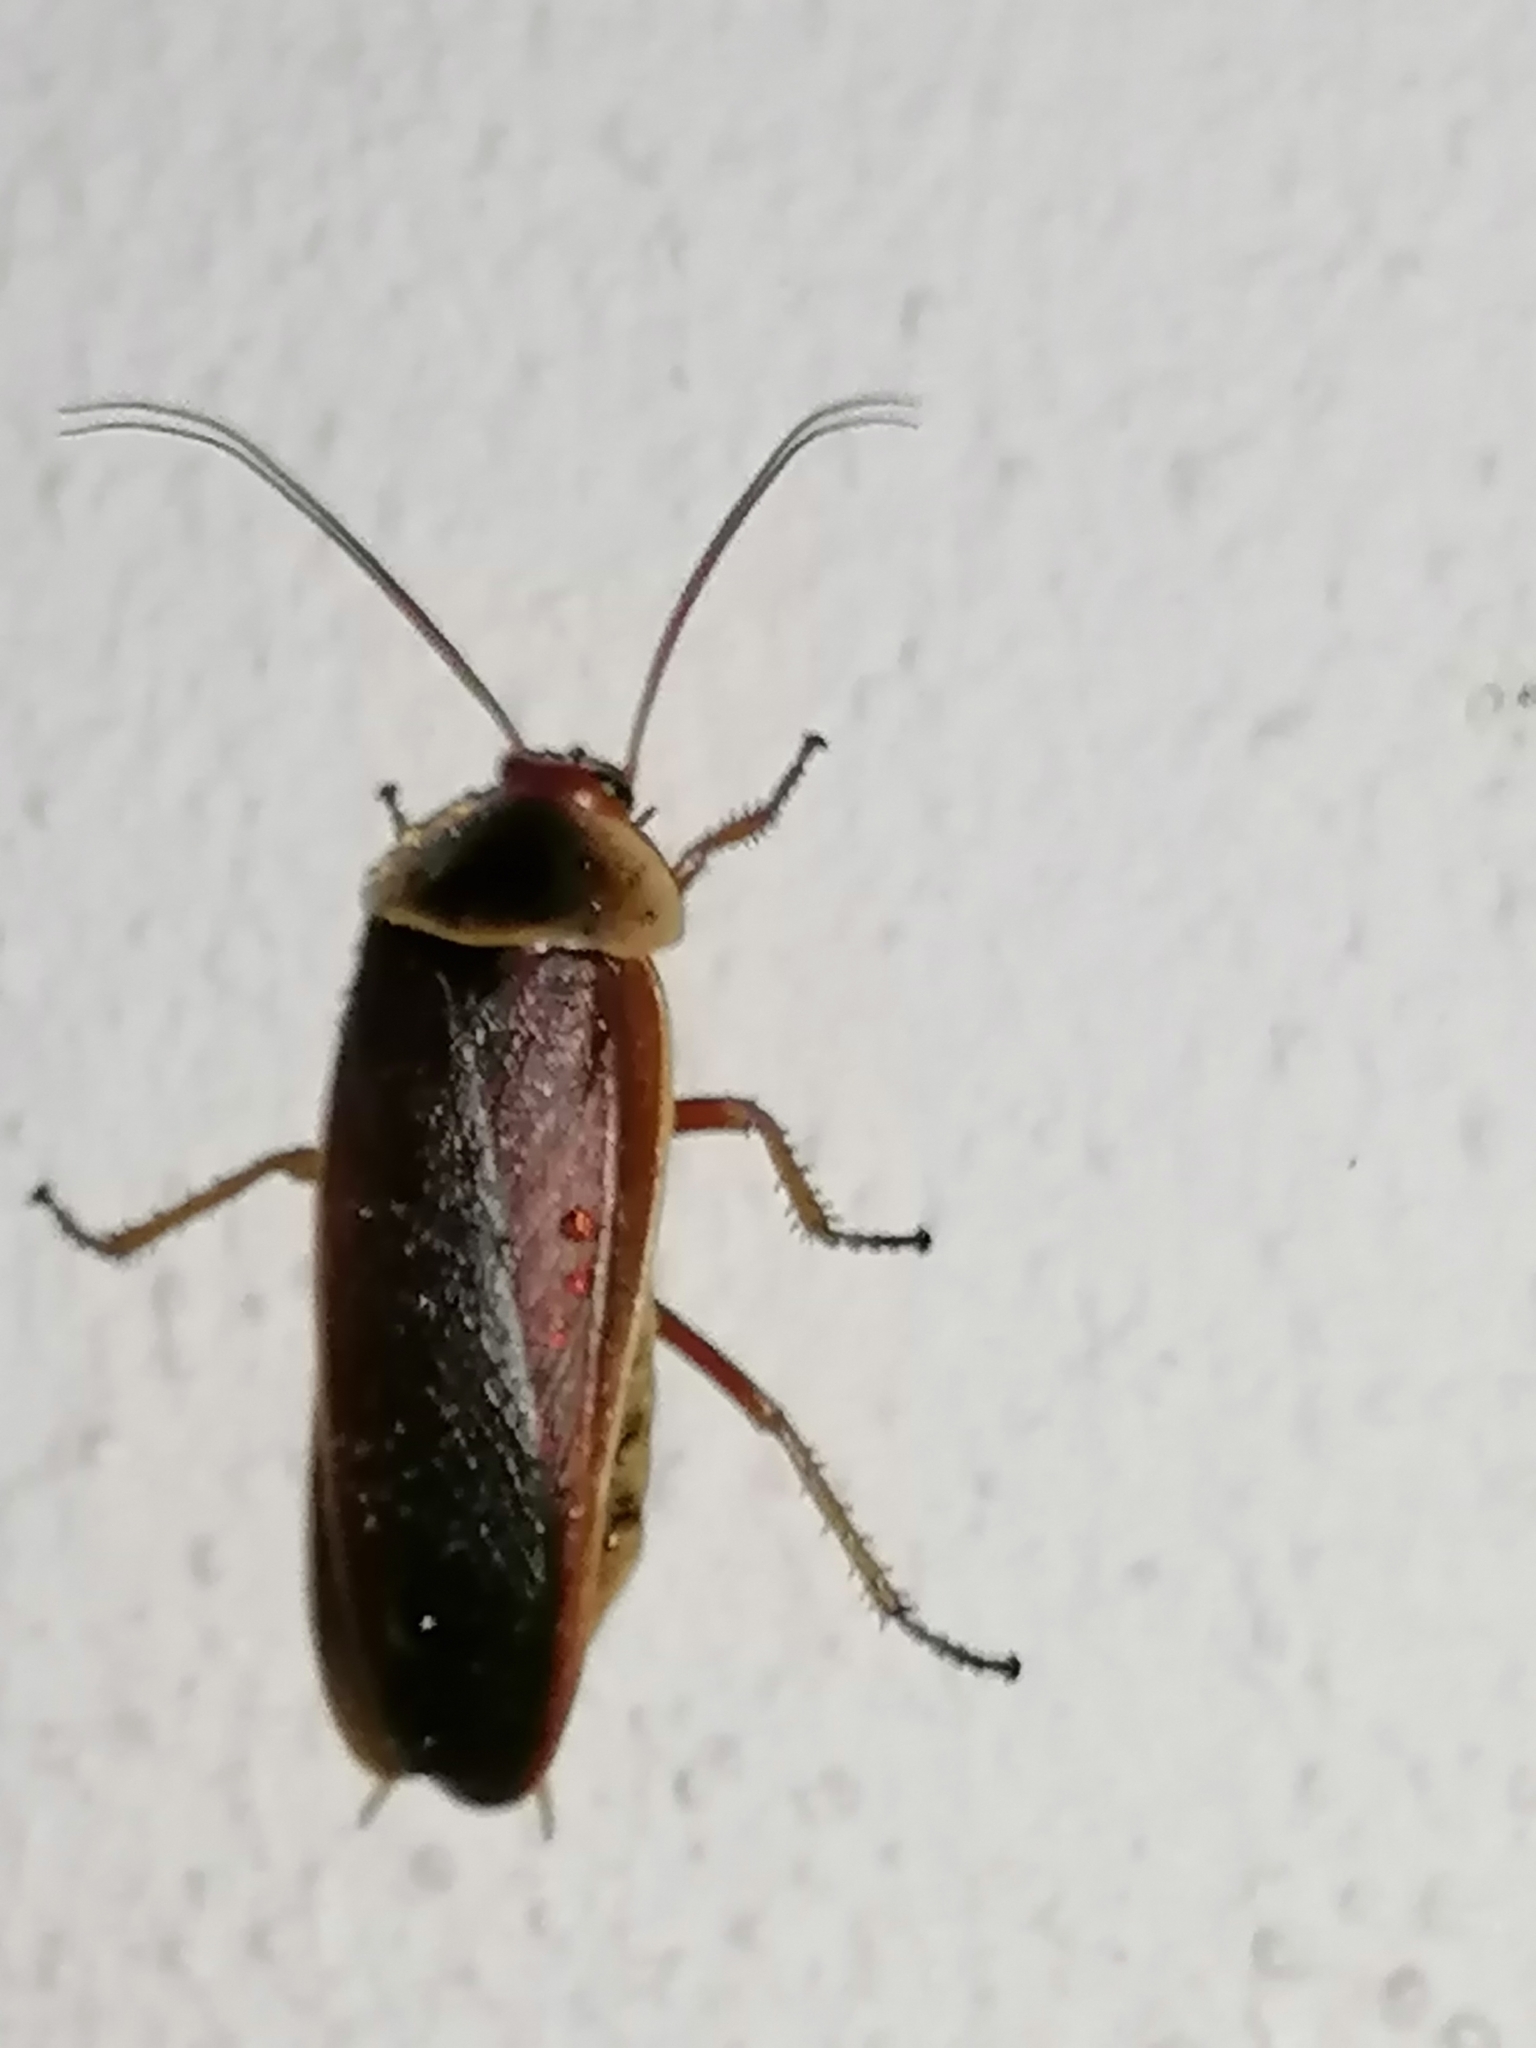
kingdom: Animalia
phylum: Arthropoda
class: Insecta
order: Blattodea
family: Blaberidae
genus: Aptera
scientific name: Aptera fusca
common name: Cape mountain cockroach
